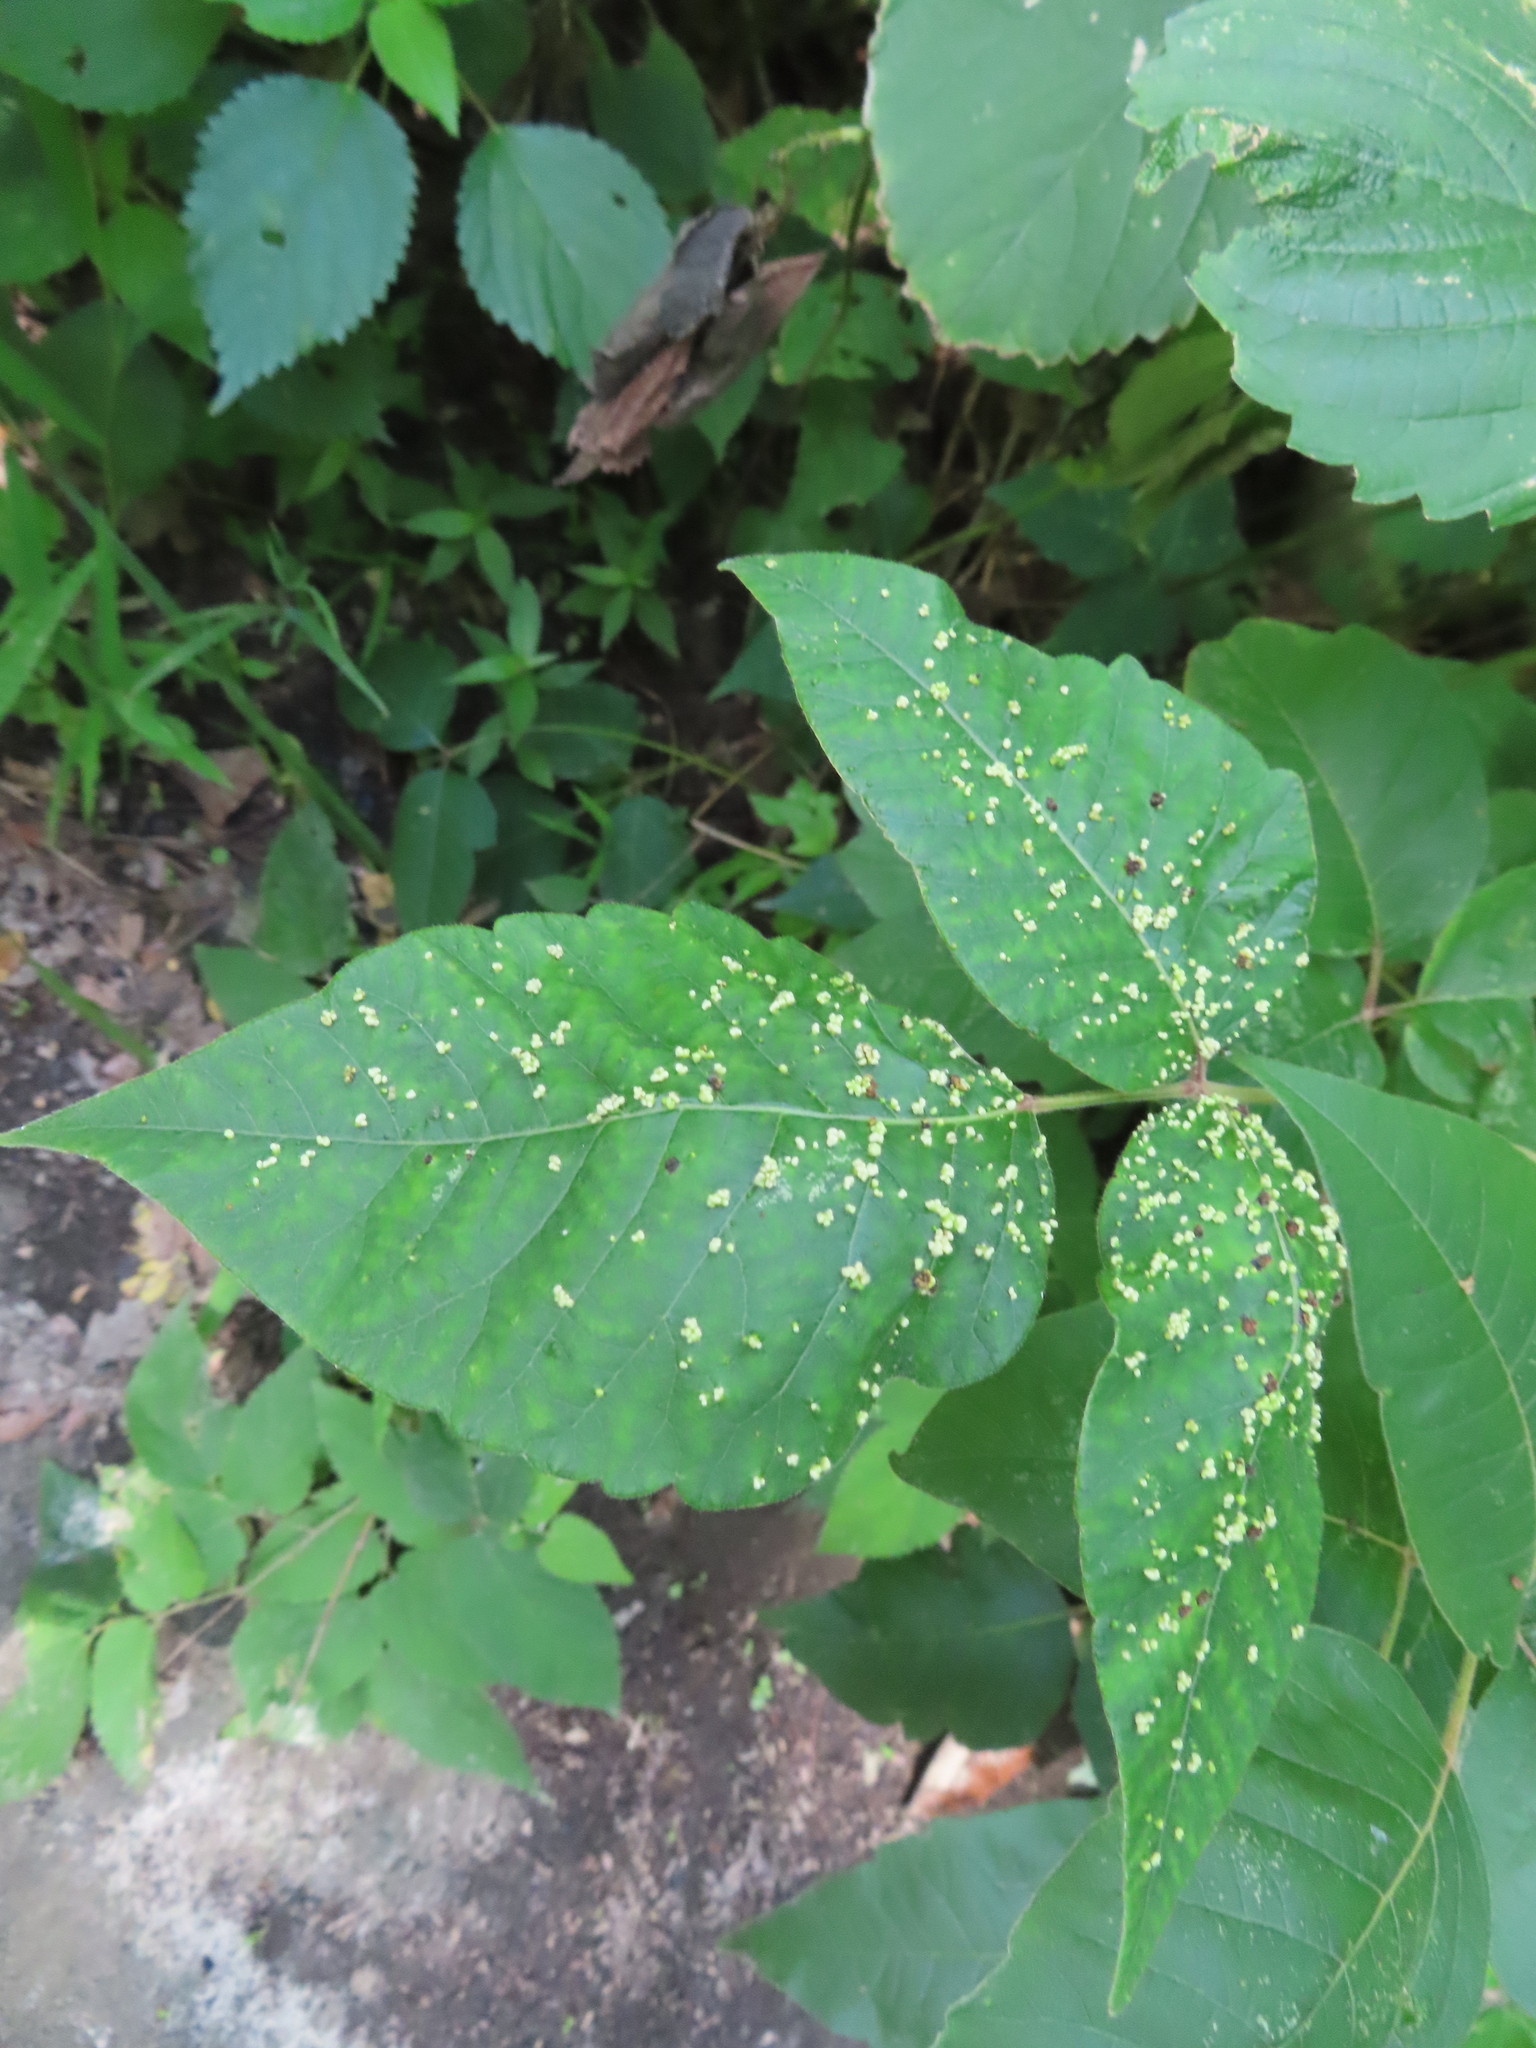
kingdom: Animalia
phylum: Arthropoda
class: Arachnida
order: Trombidiformes
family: Eriophyidae
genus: Aculops
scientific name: Aculops
